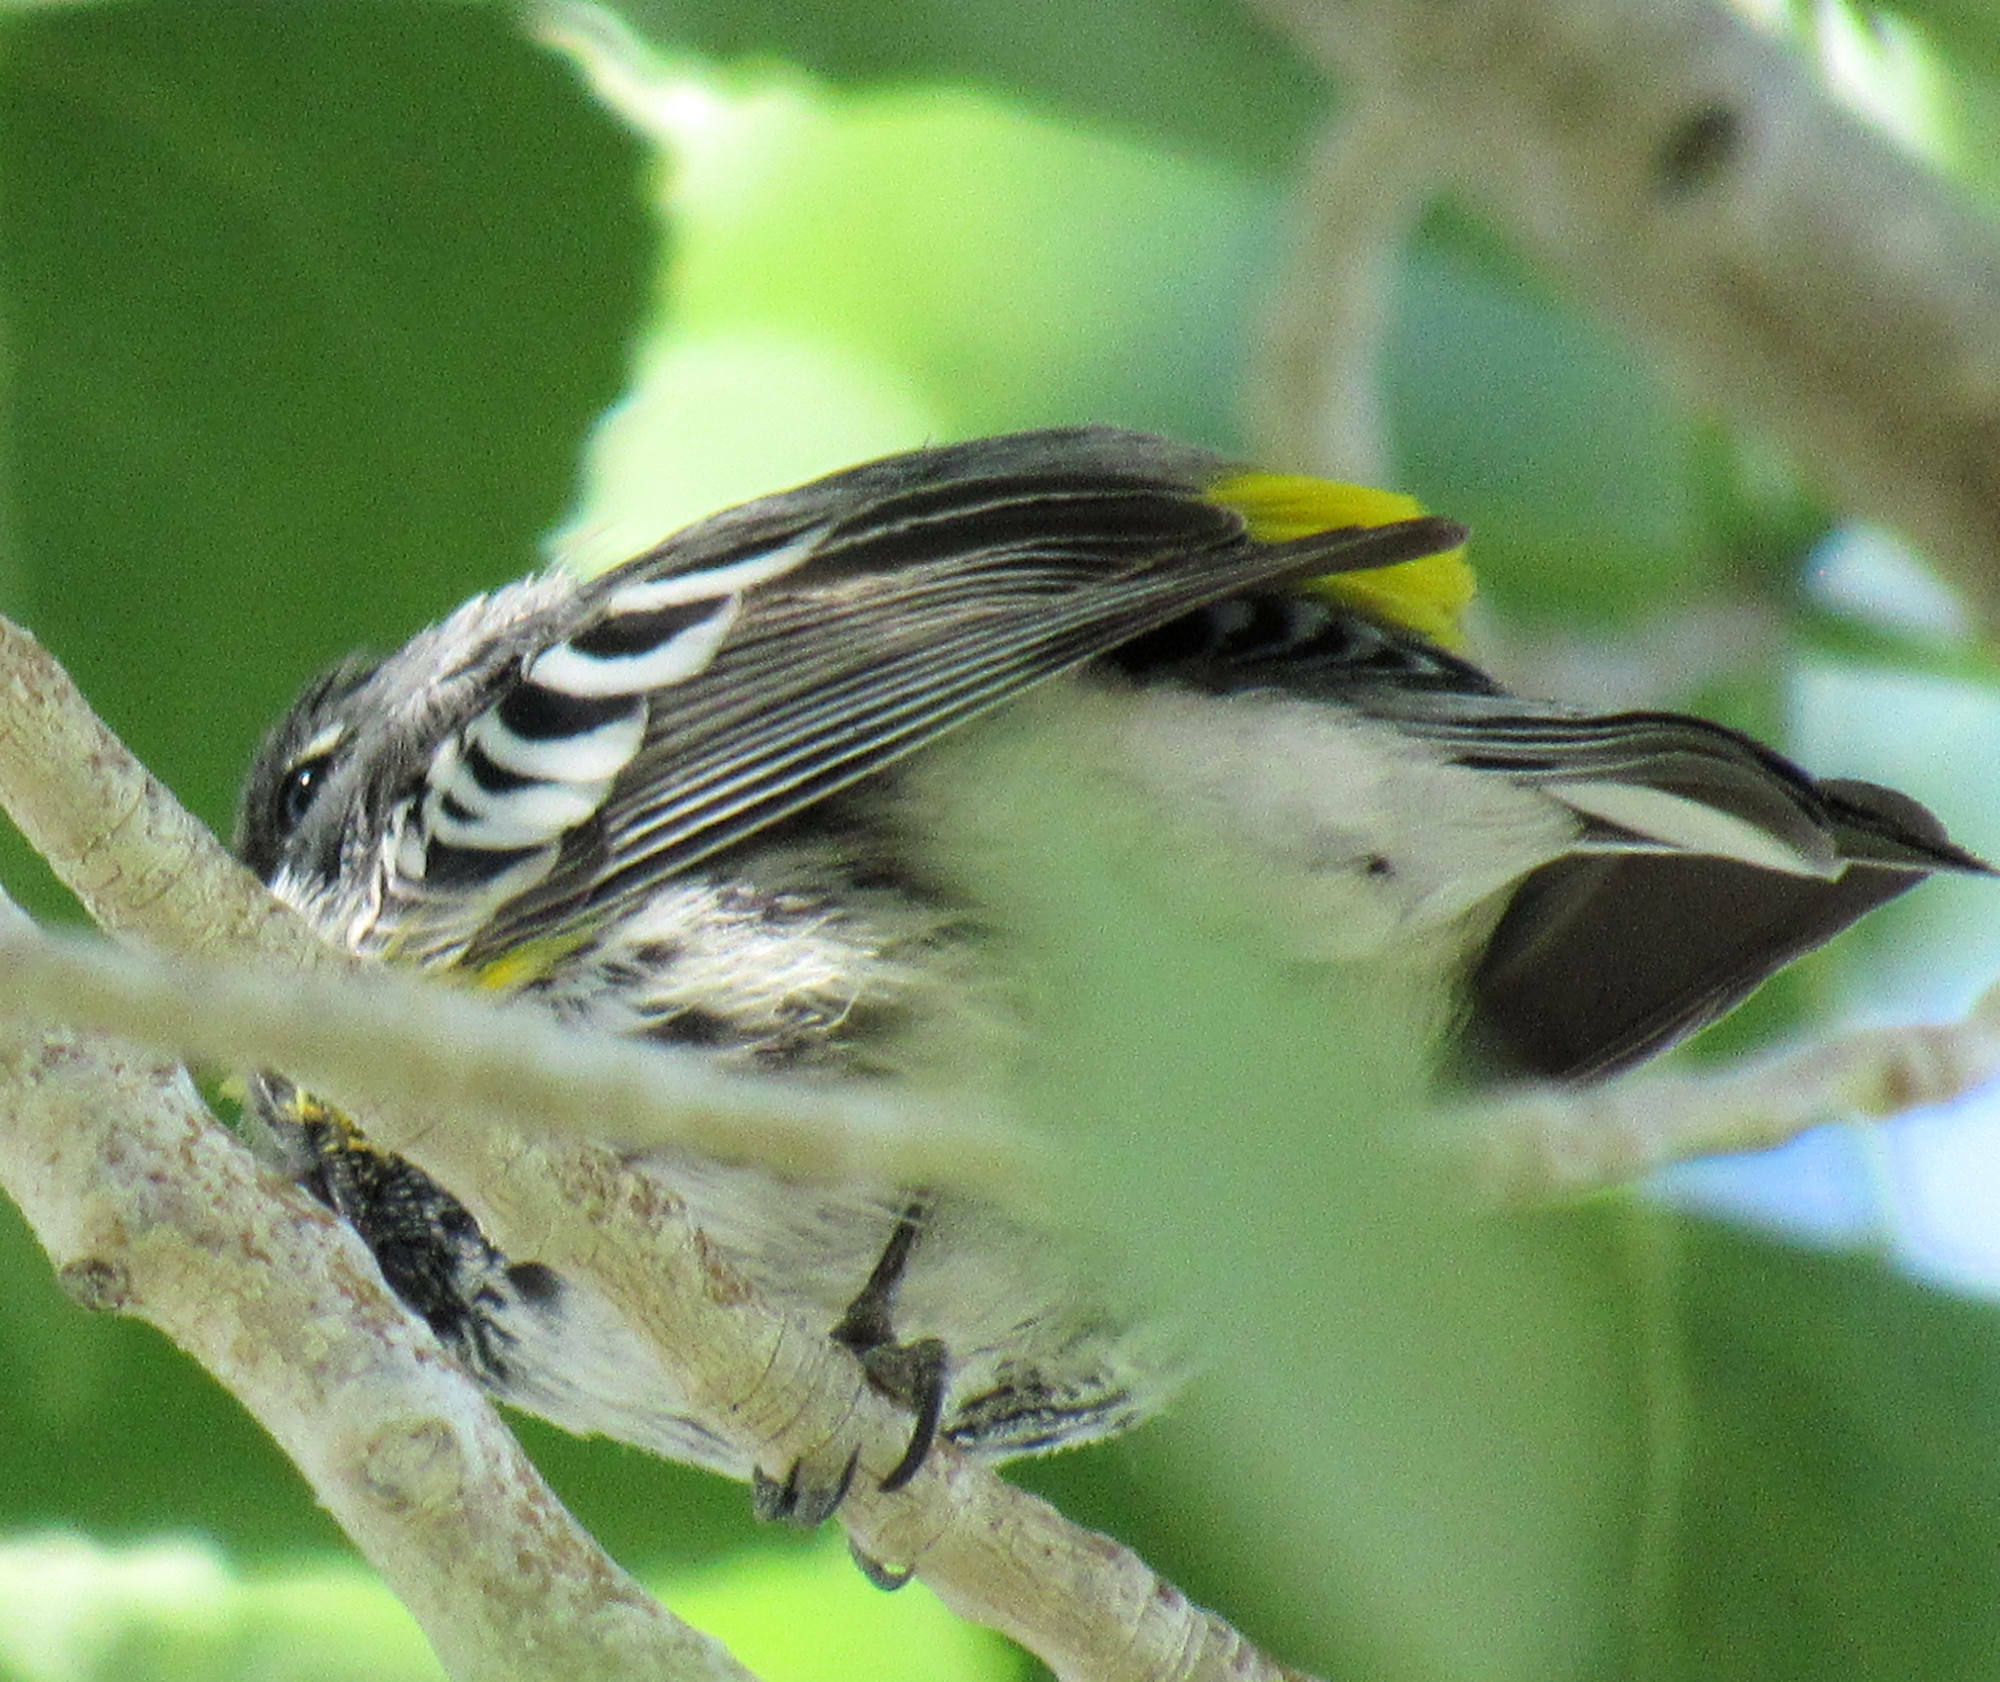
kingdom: Animalia
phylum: Chordata
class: Aves
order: Passeriformes
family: Parulidae
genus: Setophaga
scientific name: Setophaga coronata
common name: Myrtle warbler
